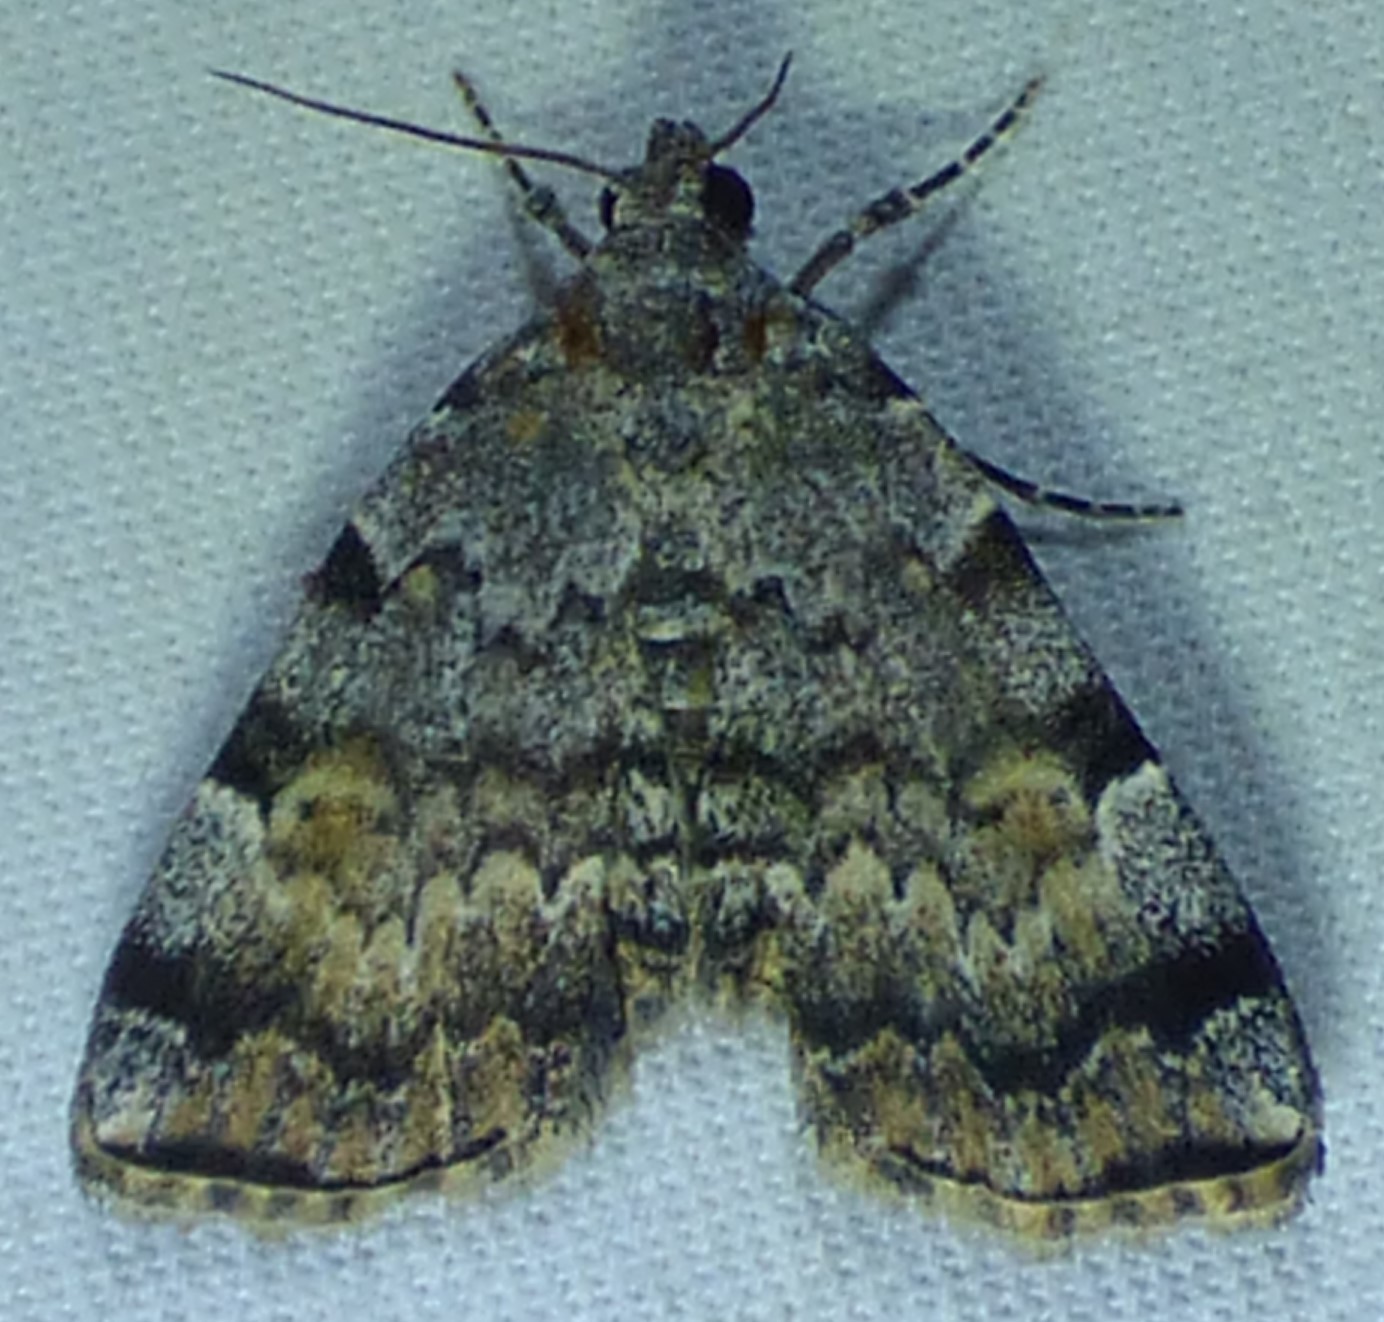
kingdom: Animalia
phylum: Arthropoda
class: Insecta
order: Lepidoptera
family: Erebidae
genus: Idia
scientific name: Idia americalis
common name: American idia moth
